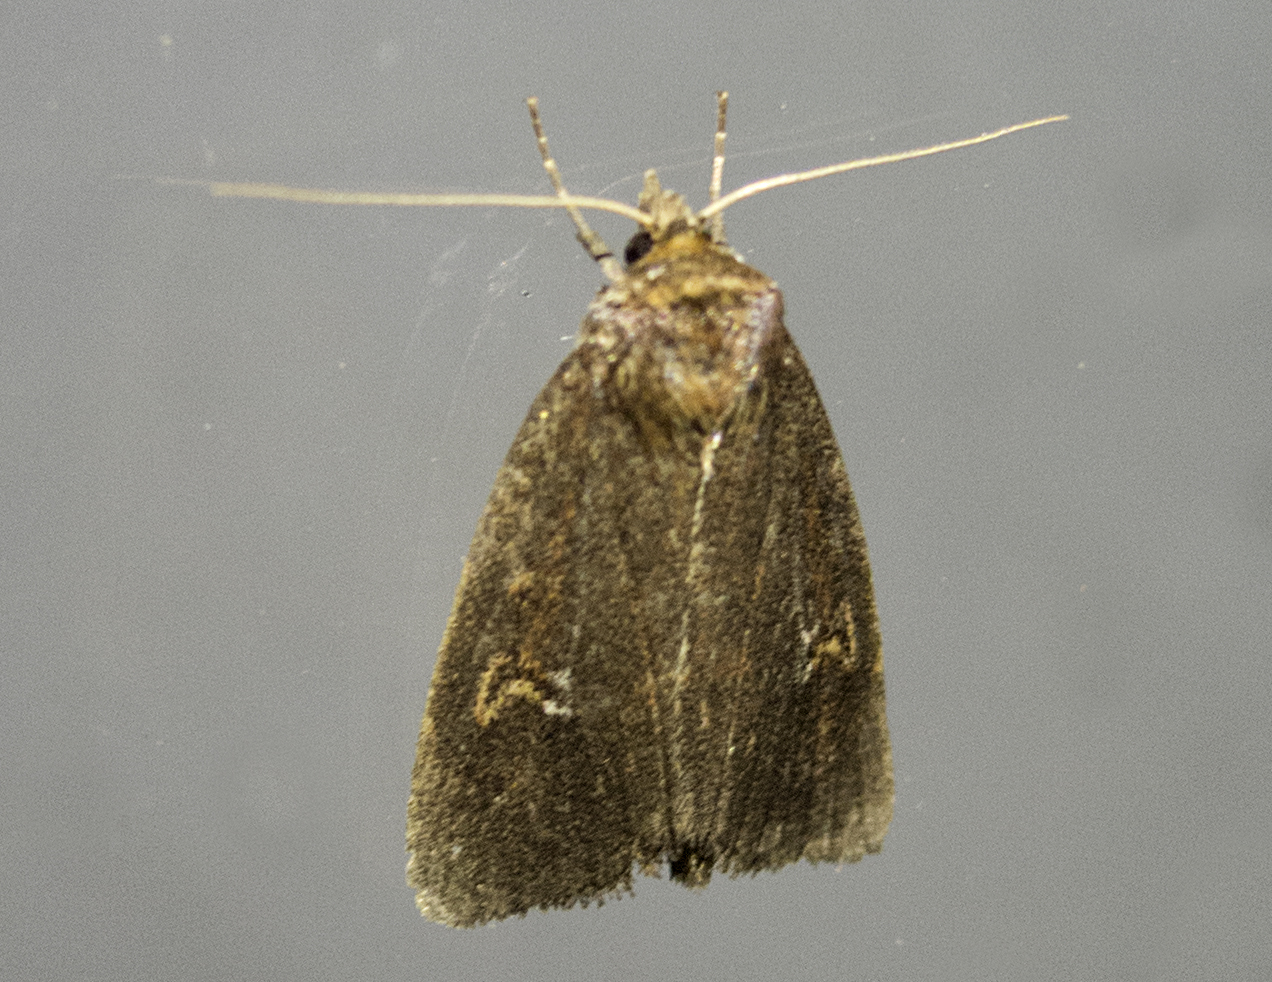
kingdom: Animalia
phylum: Arthropoda
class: Insecta
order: Lepidoptera
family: Noctuidae
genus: Archanara
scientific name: Archanara dissoluta
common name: Brown-veined wainscot
